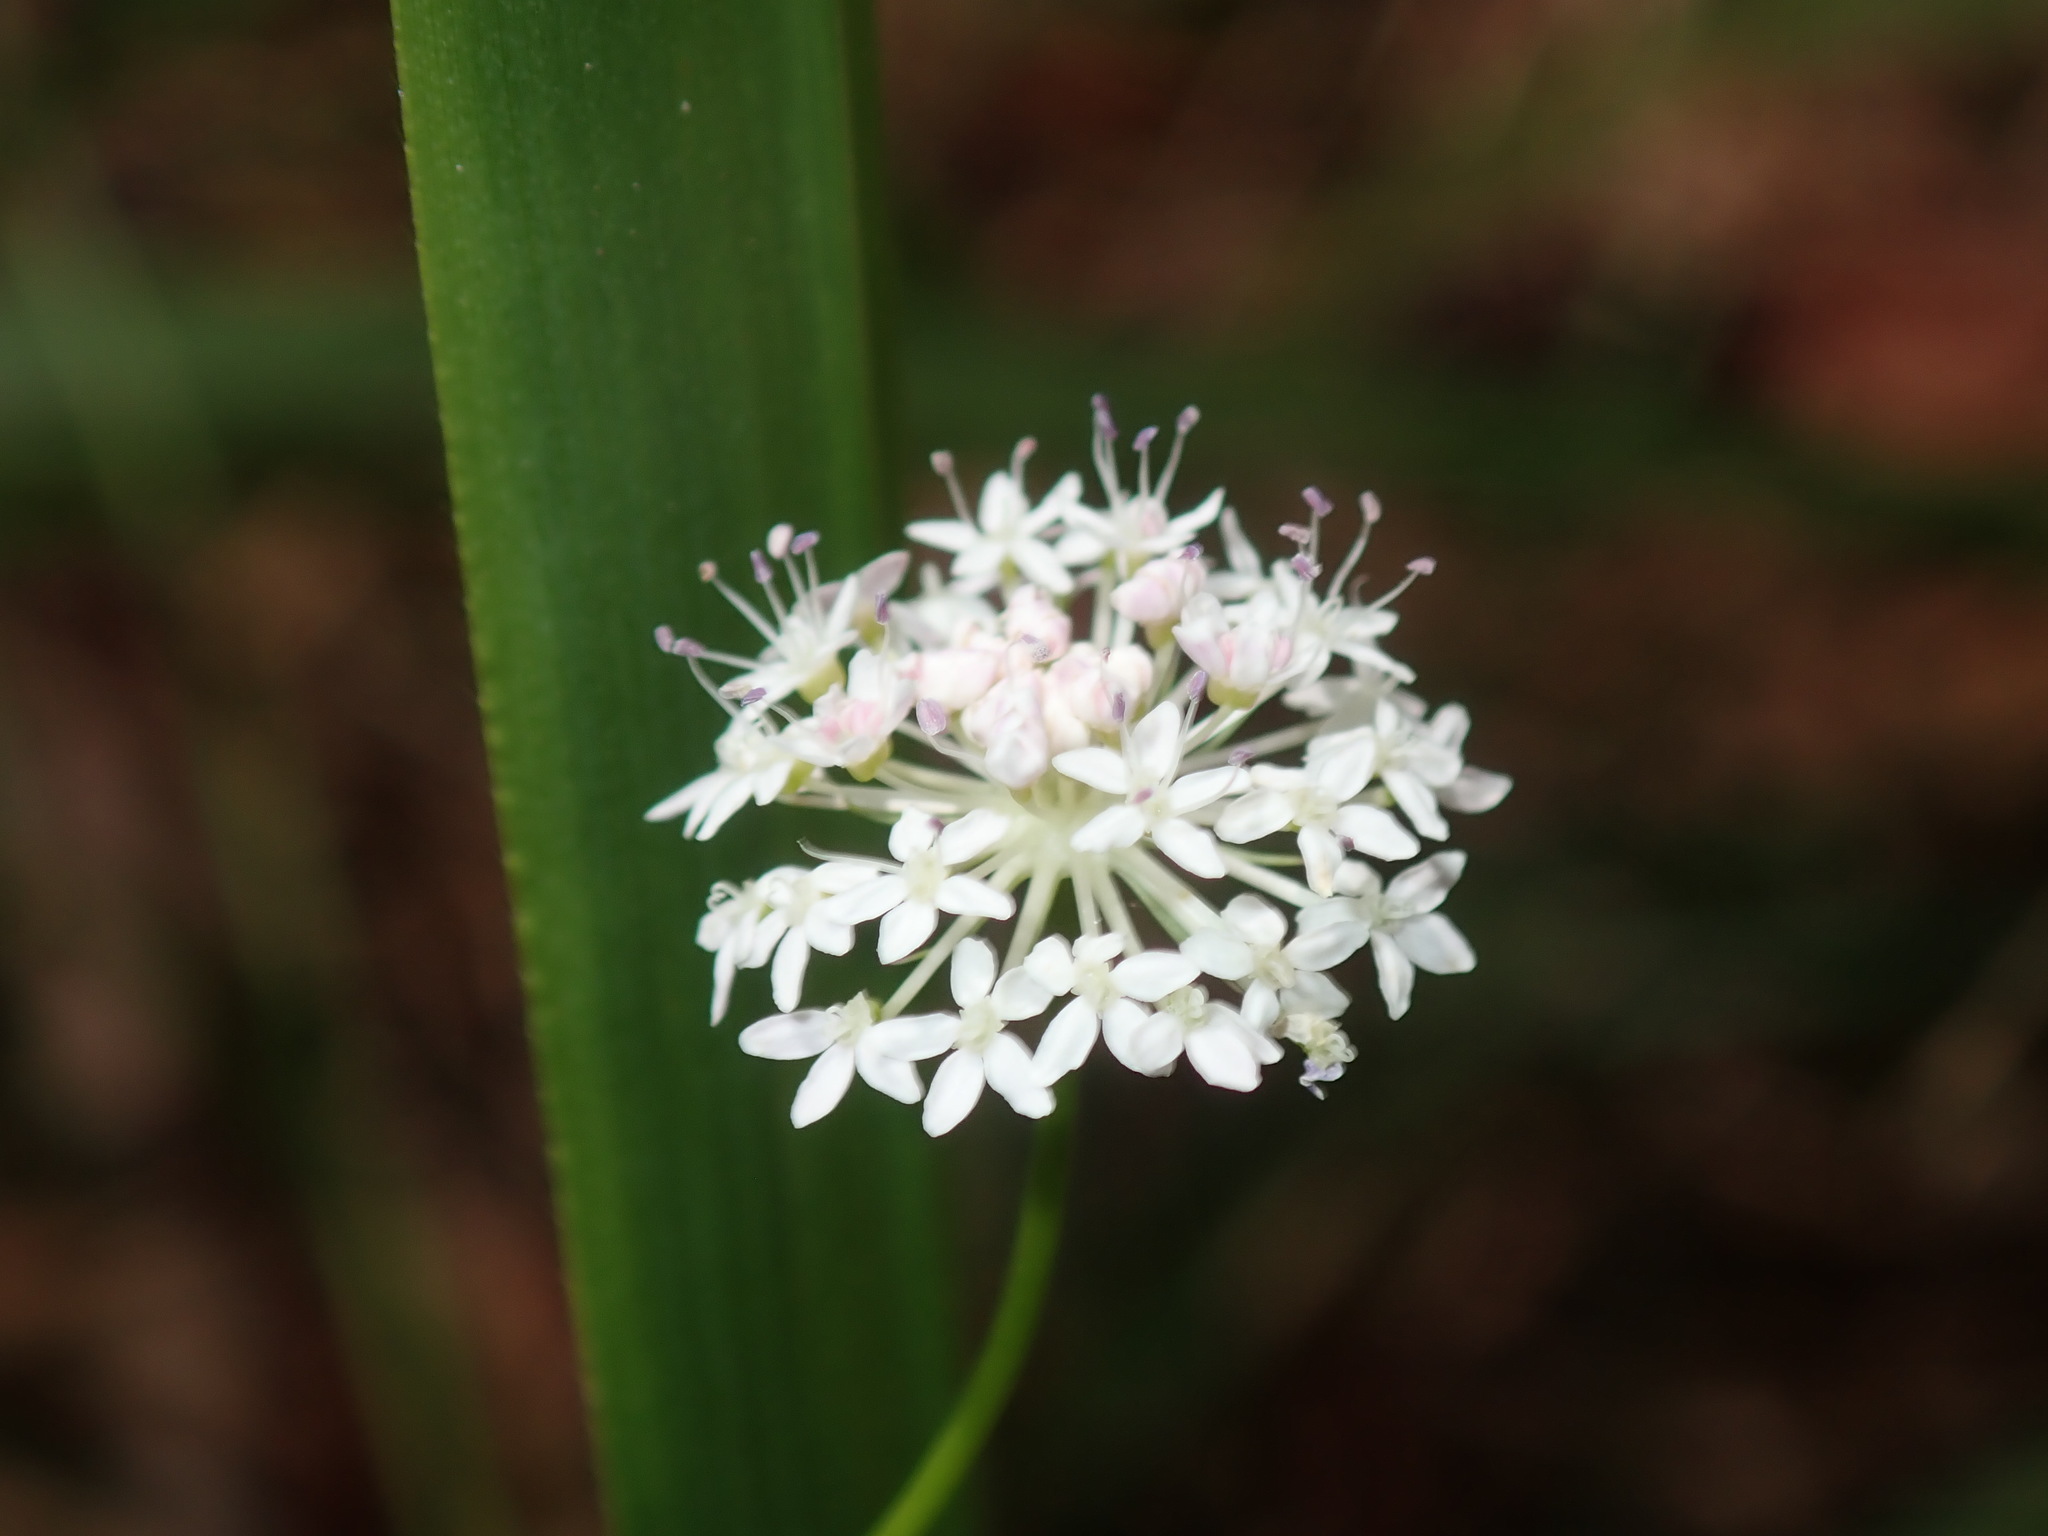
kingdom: Plantae
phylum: Tracheophyta
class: Magnoliopsida
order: Apiales
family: Araliaceae
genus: Trachymene
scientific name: Trachymene incisa
